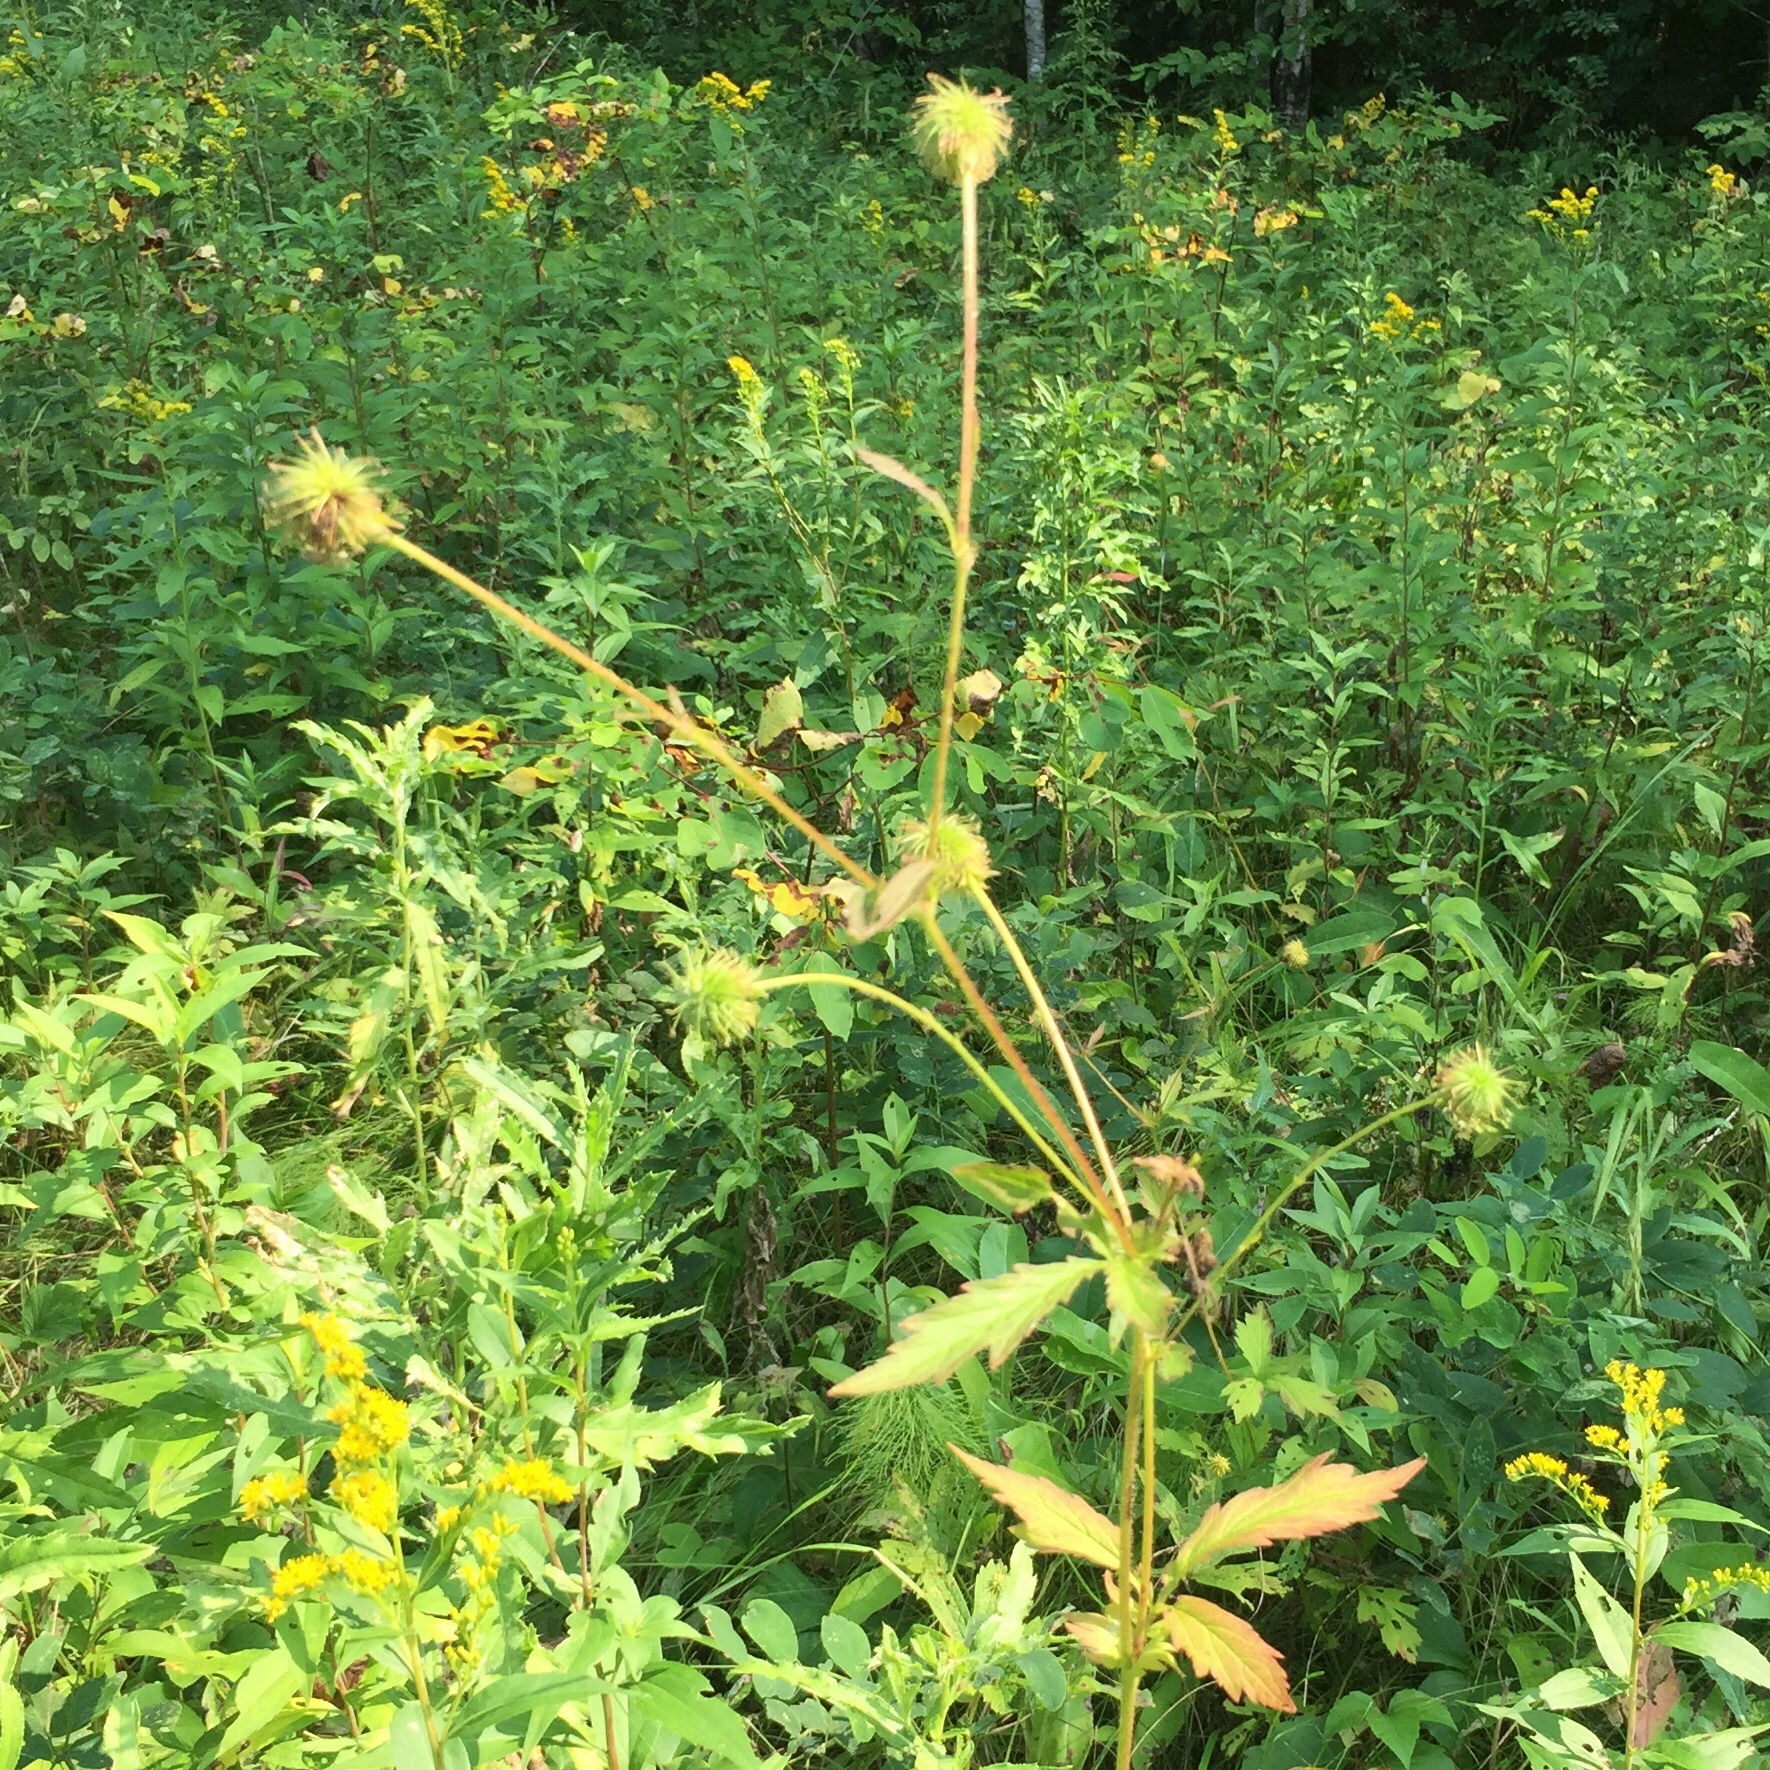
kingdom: Plantae
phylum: Tracheophyta
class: Magnoliopsida
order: Rosales
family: Rosaceae
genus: Geum
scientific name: Geum aleppicum
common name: Yellow avens
